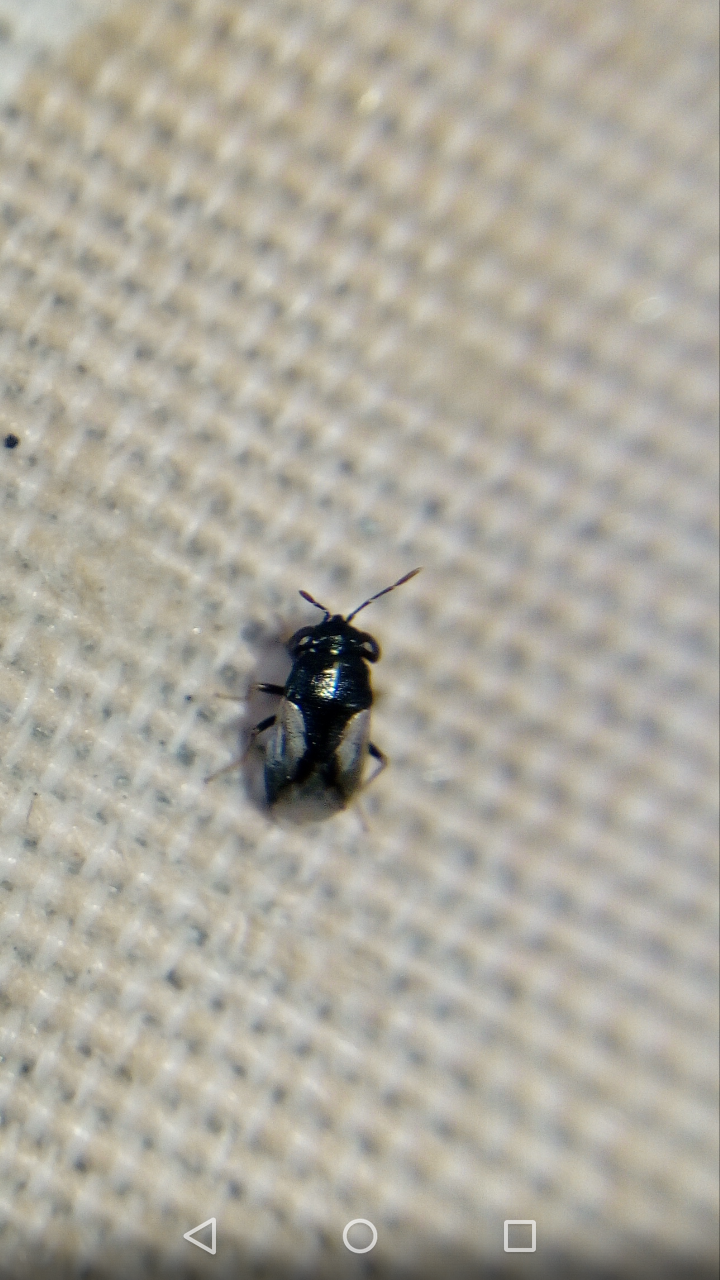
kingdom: Animalia
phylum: Arthropoda
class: Insecta
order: Hemiptera
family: Geocoridae
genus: Geocoris
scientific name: Geocoris lineolus
